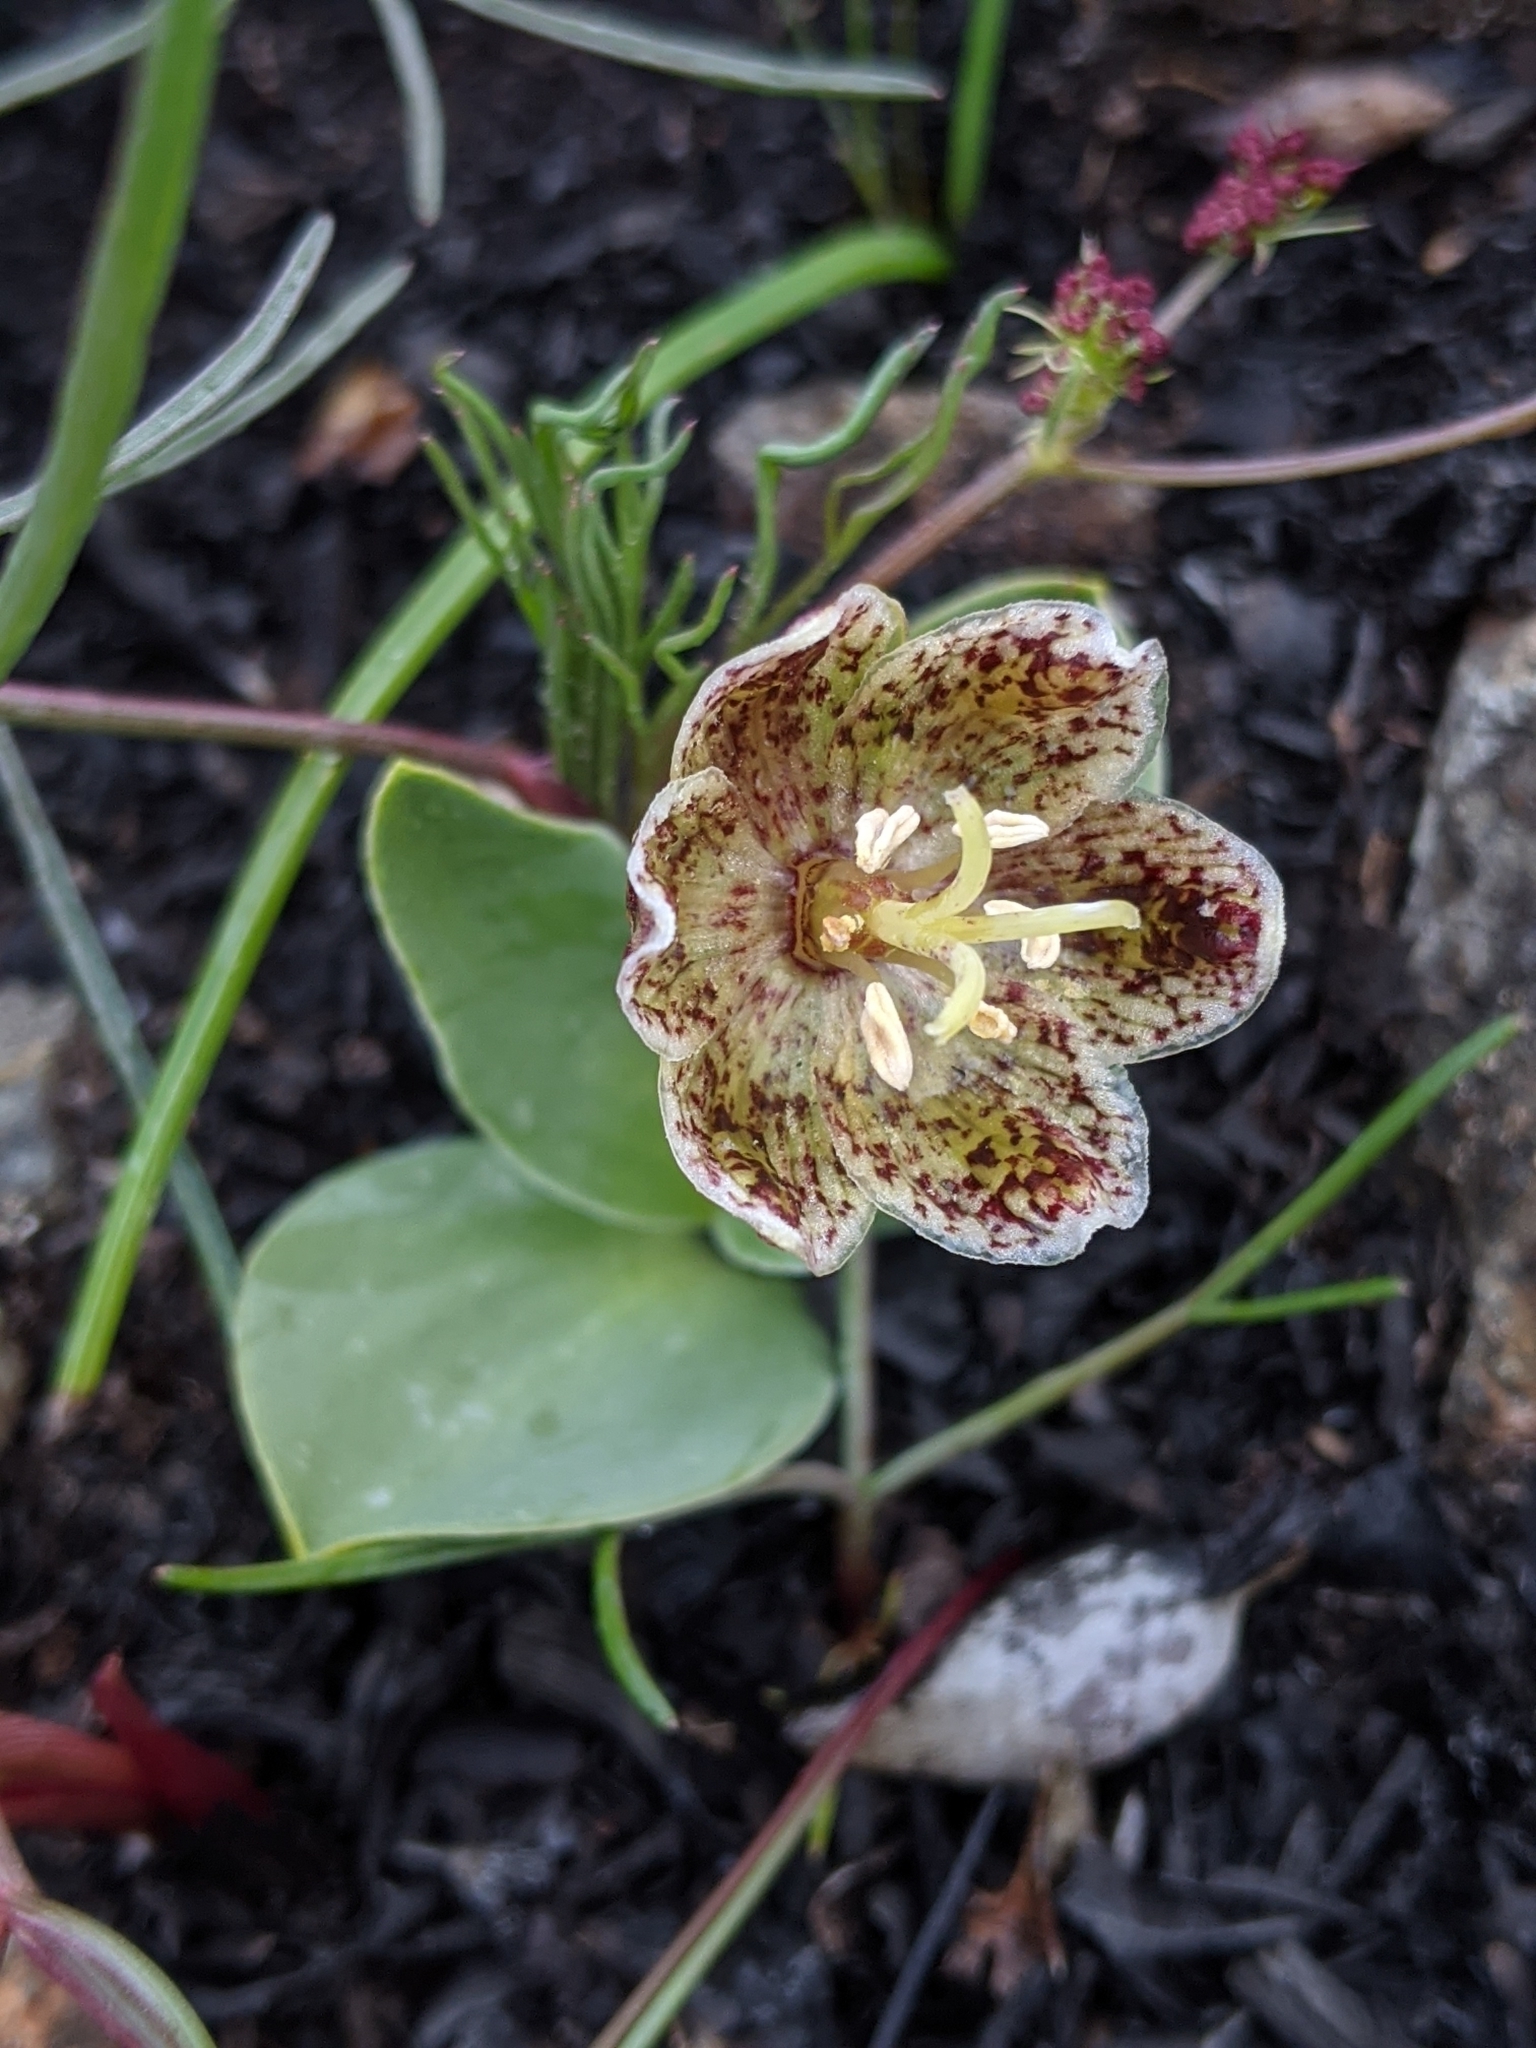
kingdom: Plantae
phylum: Tracheophyta
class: Liliopsida
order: Liliales
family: Liliaceae
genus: Fritillaria
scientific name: Fritillaria purdyi
